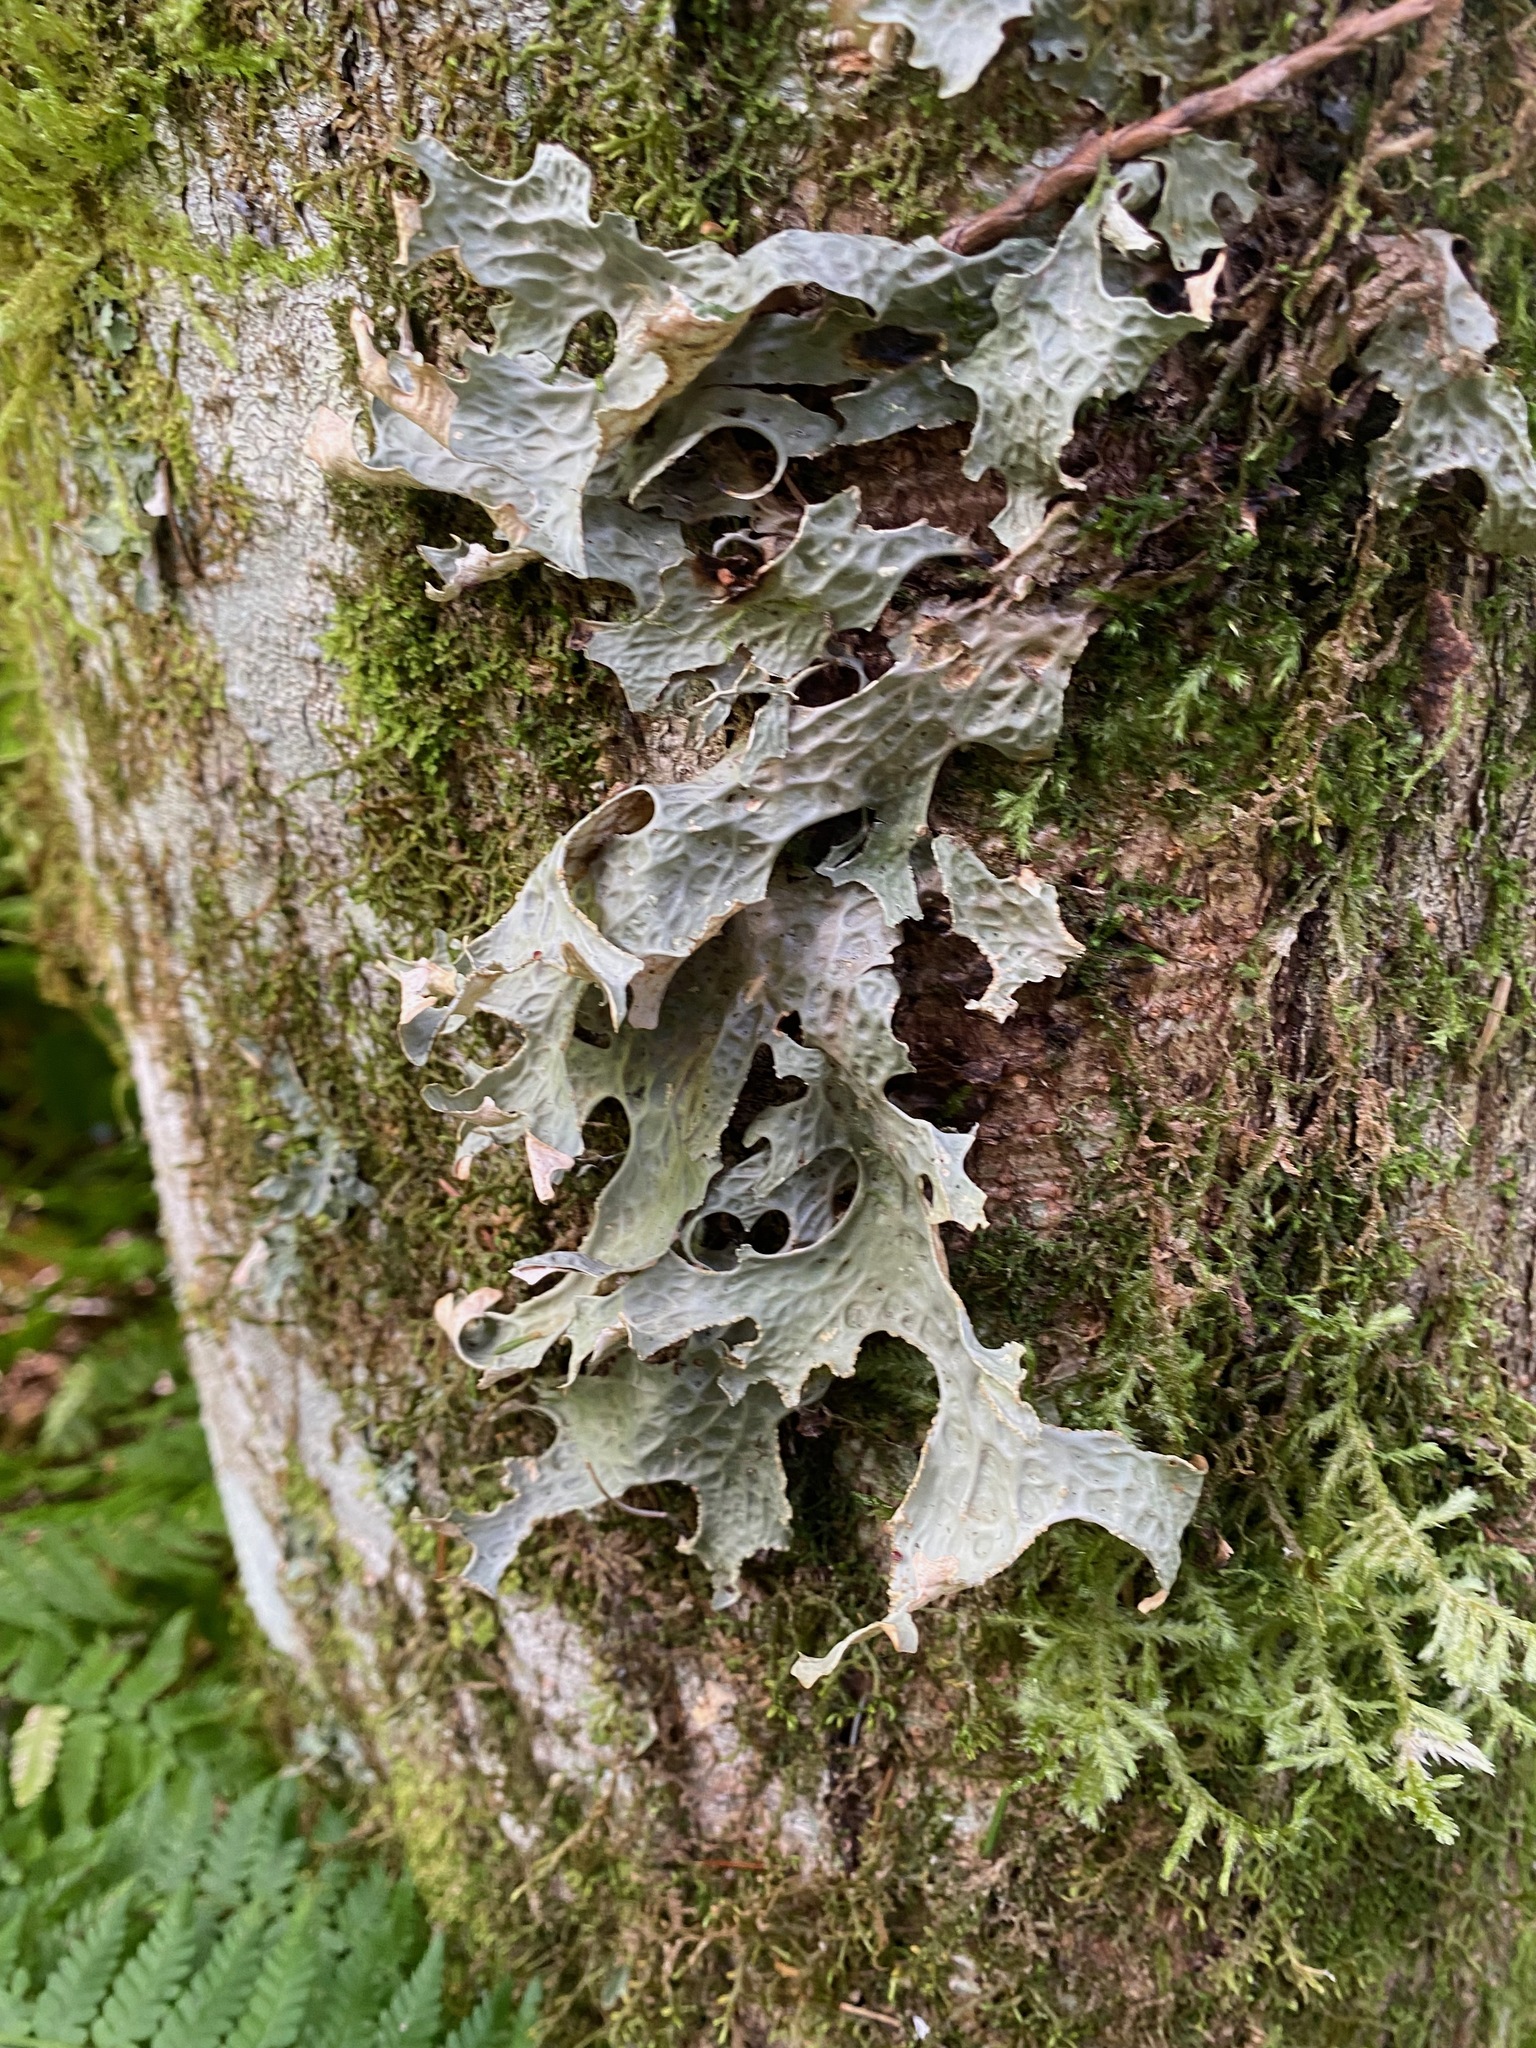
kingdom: Fungi
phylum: Ascomycota
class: Lecanoromycetes
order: Peltigerales
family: Lobariaceae
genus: Lobaria
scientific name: Lobaria pulmonaria
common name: Lungwort
